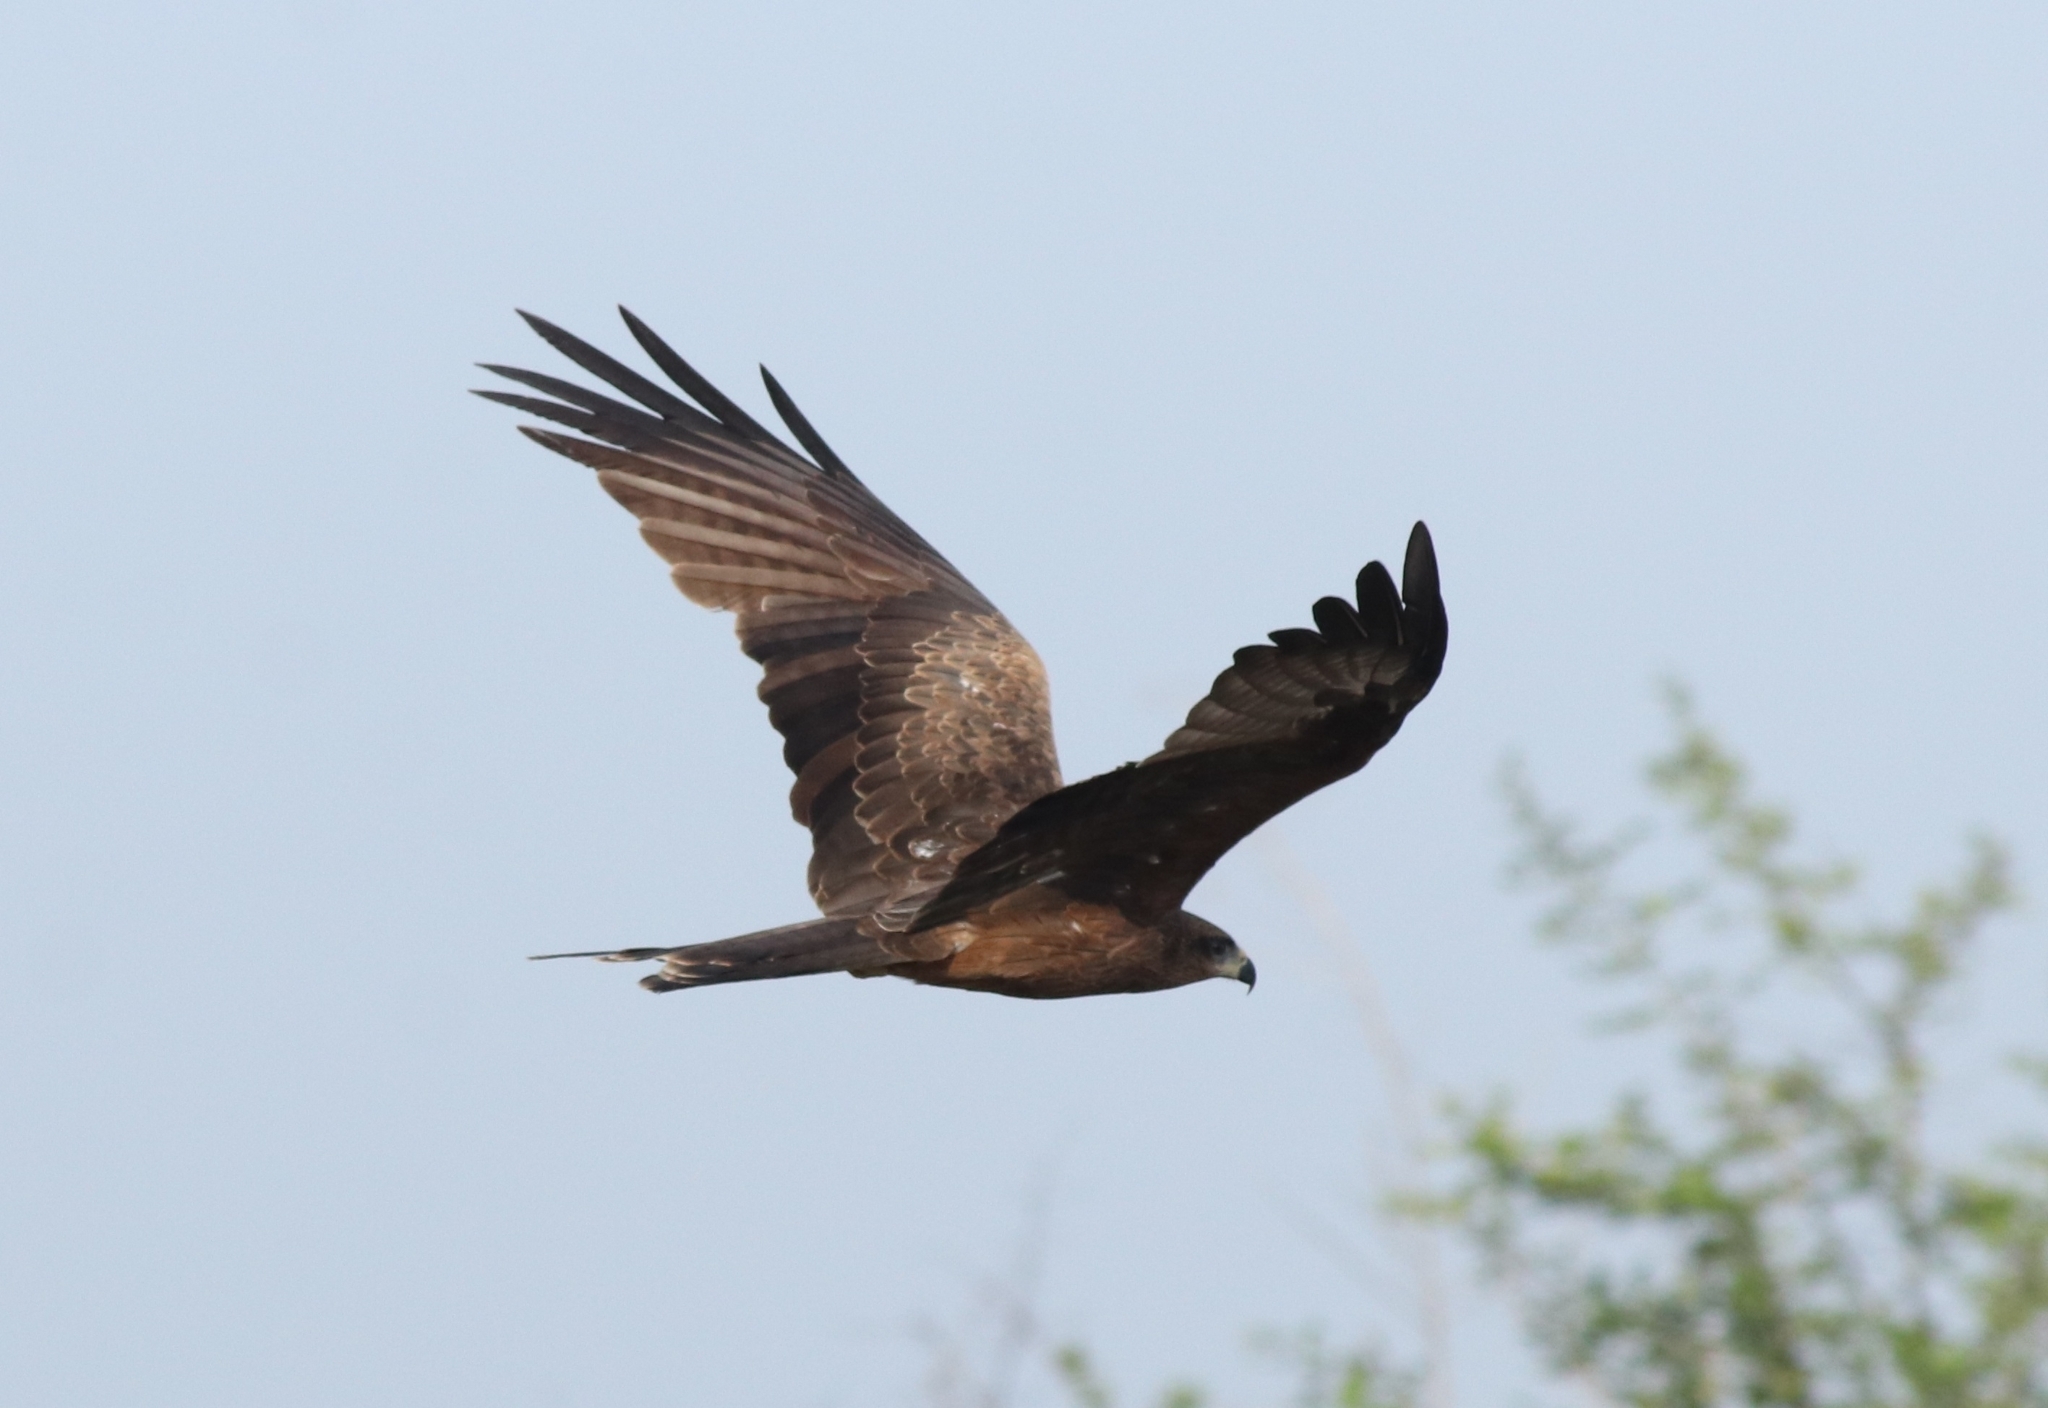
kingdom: Animalia
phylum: Chordata
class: Aves
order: Accipitriformes
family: Accipitridae
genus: Milvus
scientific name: Milvus migrans
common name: Black kite
